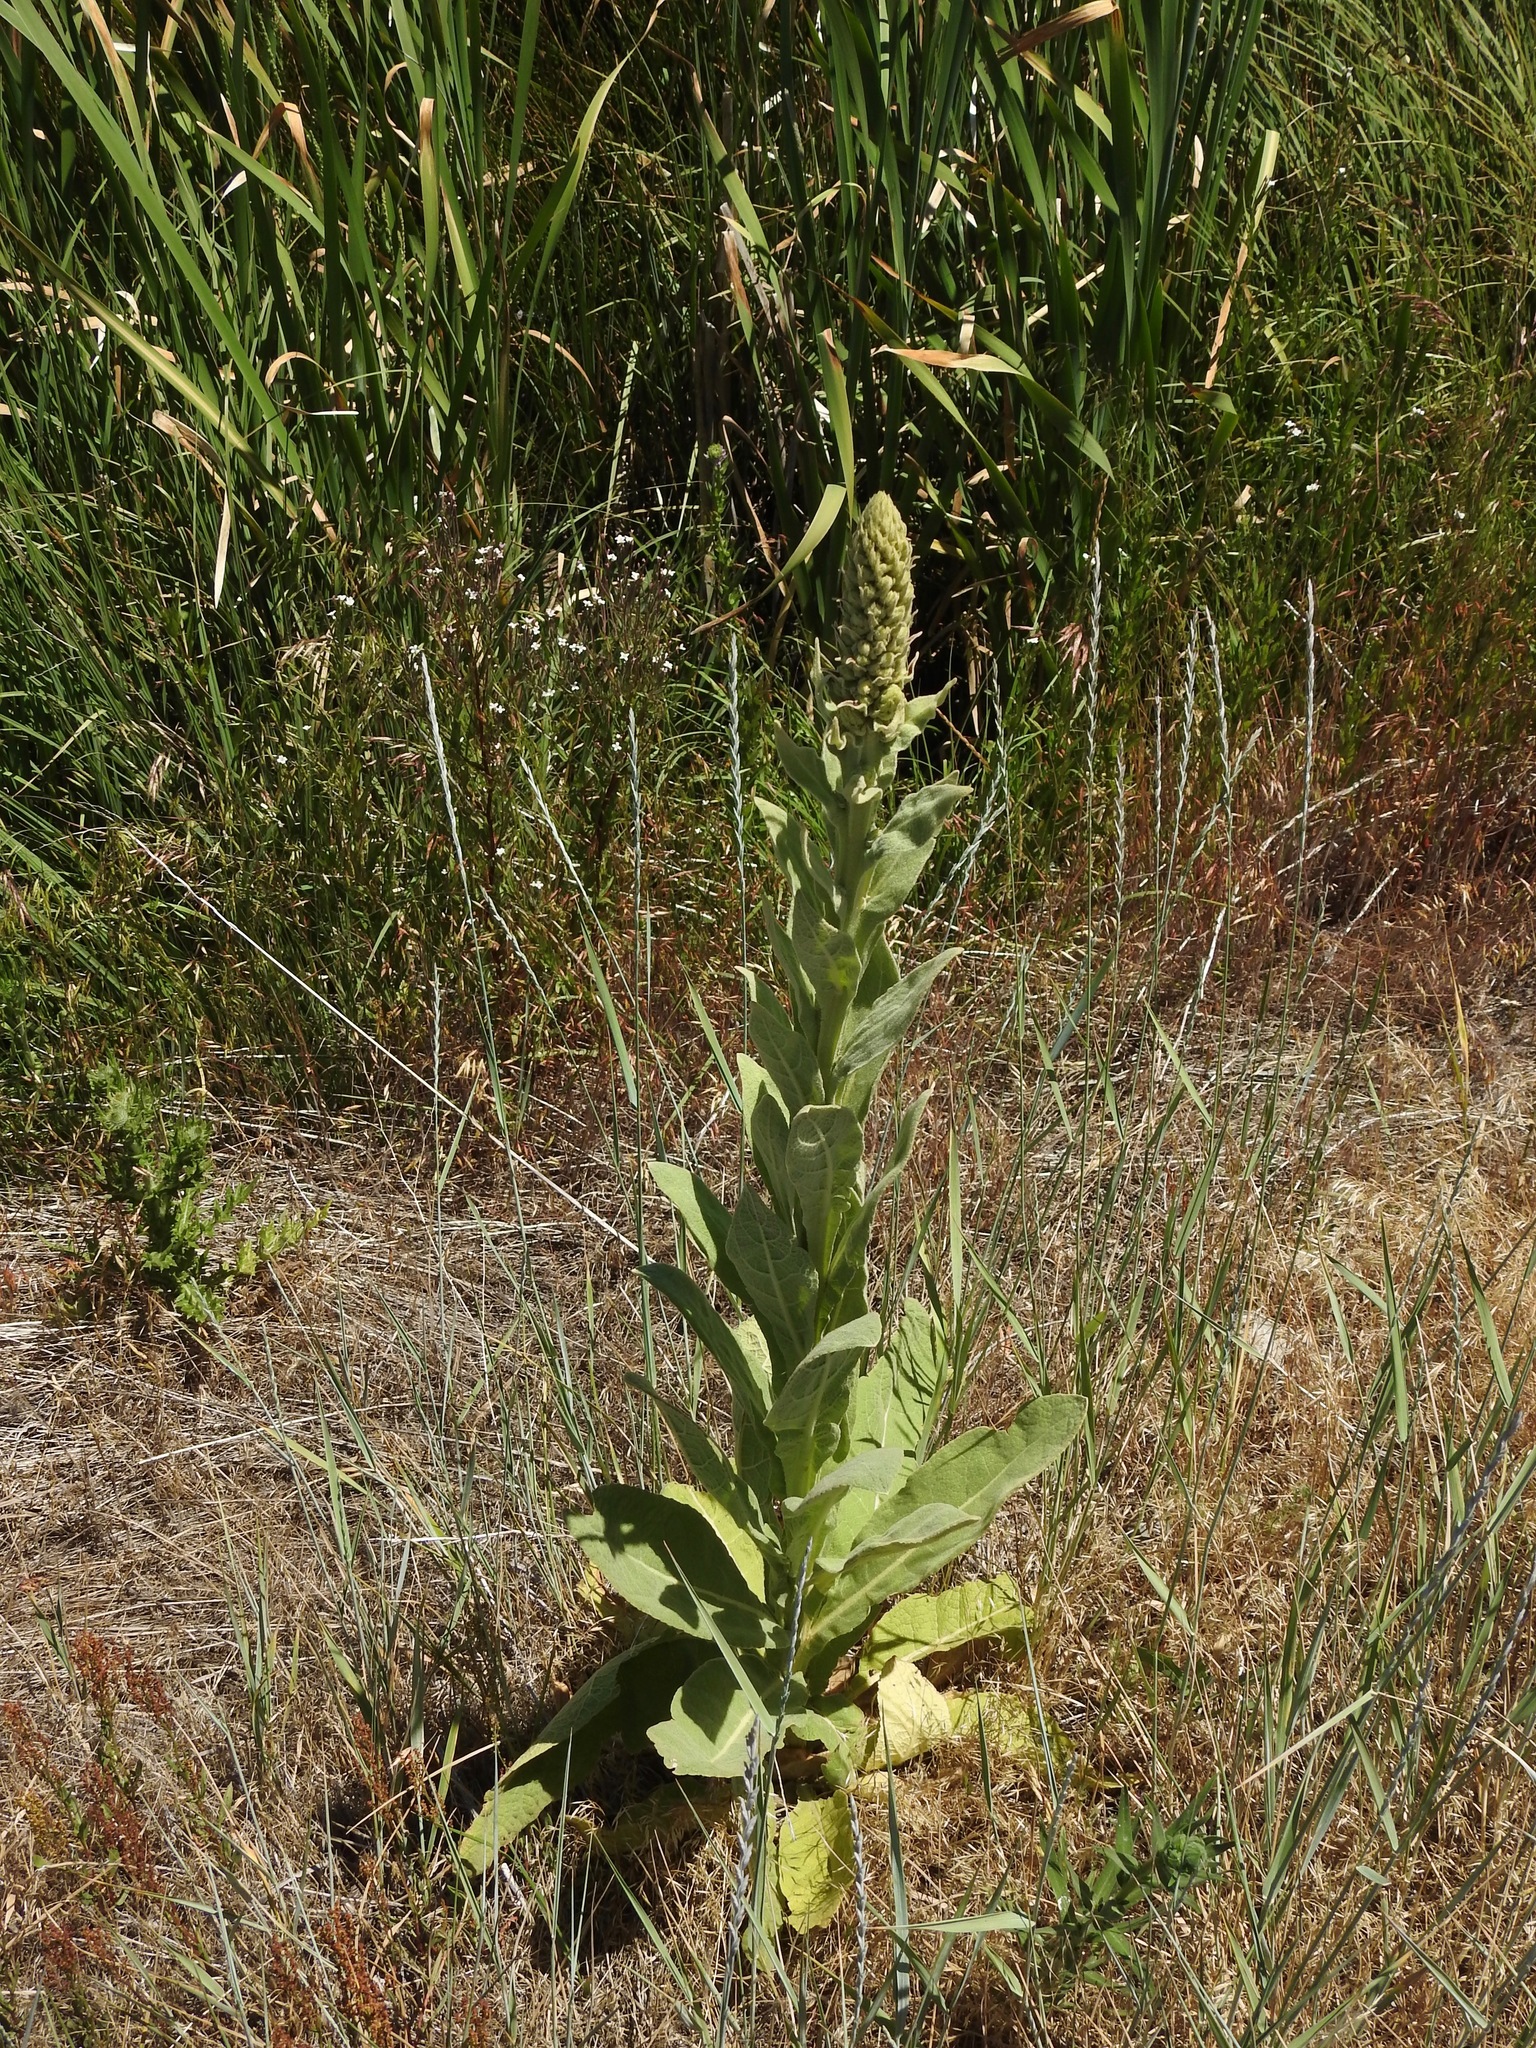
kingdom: Plantae
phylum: Tracheophyta
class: Magnoliopsida
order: Lamiales
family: Scrophulariaceae
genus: Verbascum
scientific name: Verbascum thapsus
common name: Common mullein
